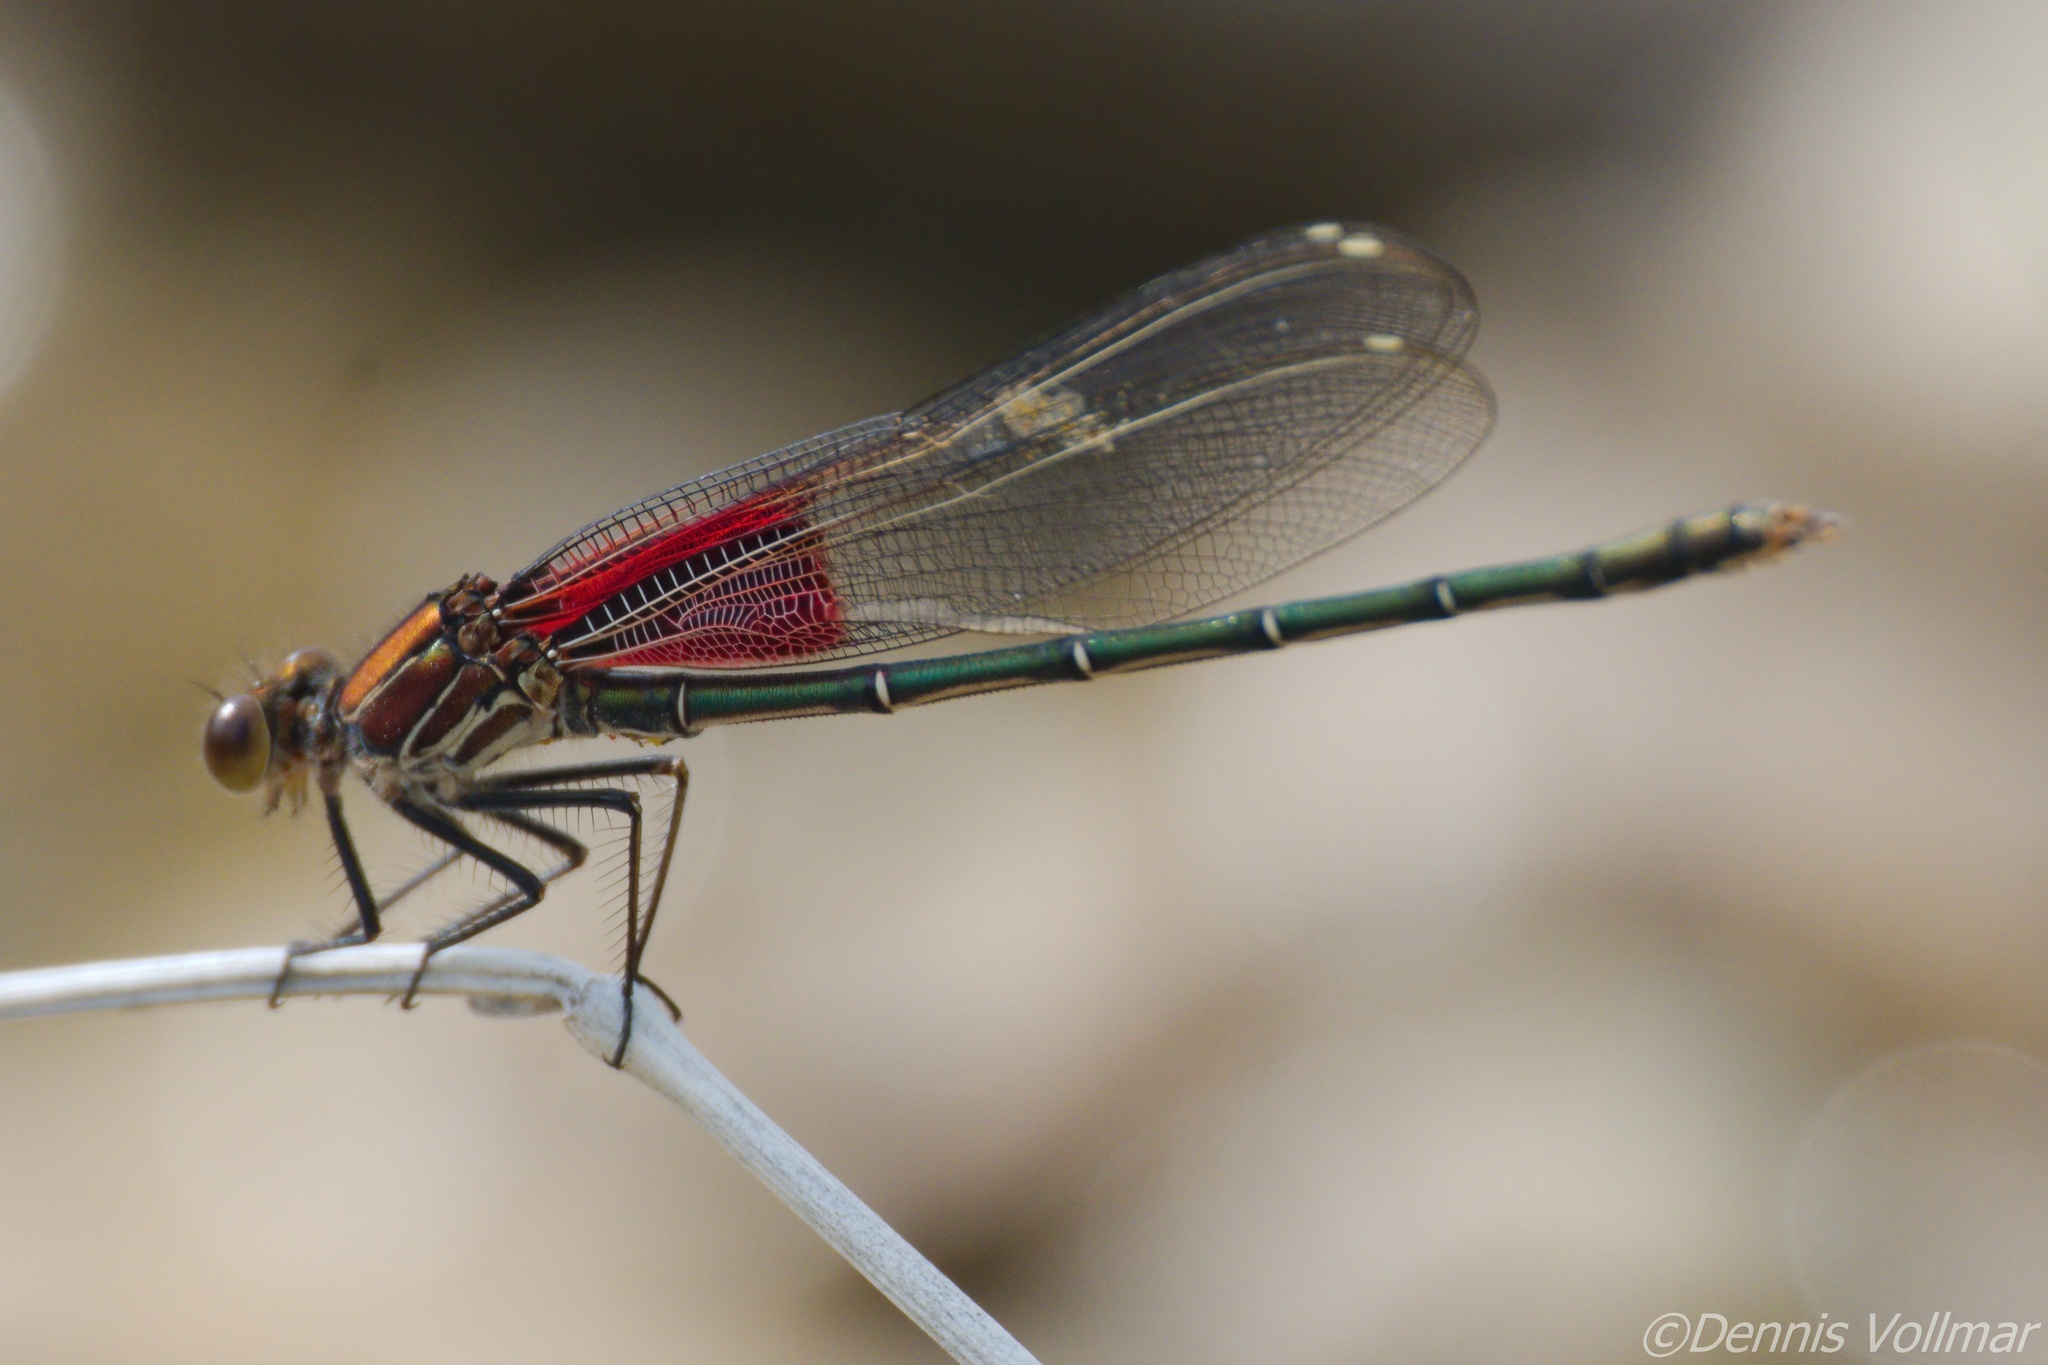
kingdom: Animalia
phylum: Arthropoda
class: Insecta
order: Odonata
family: Calopterygidae
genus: Hetaerina
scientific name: Hetaerina americana
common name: American rubyspot
